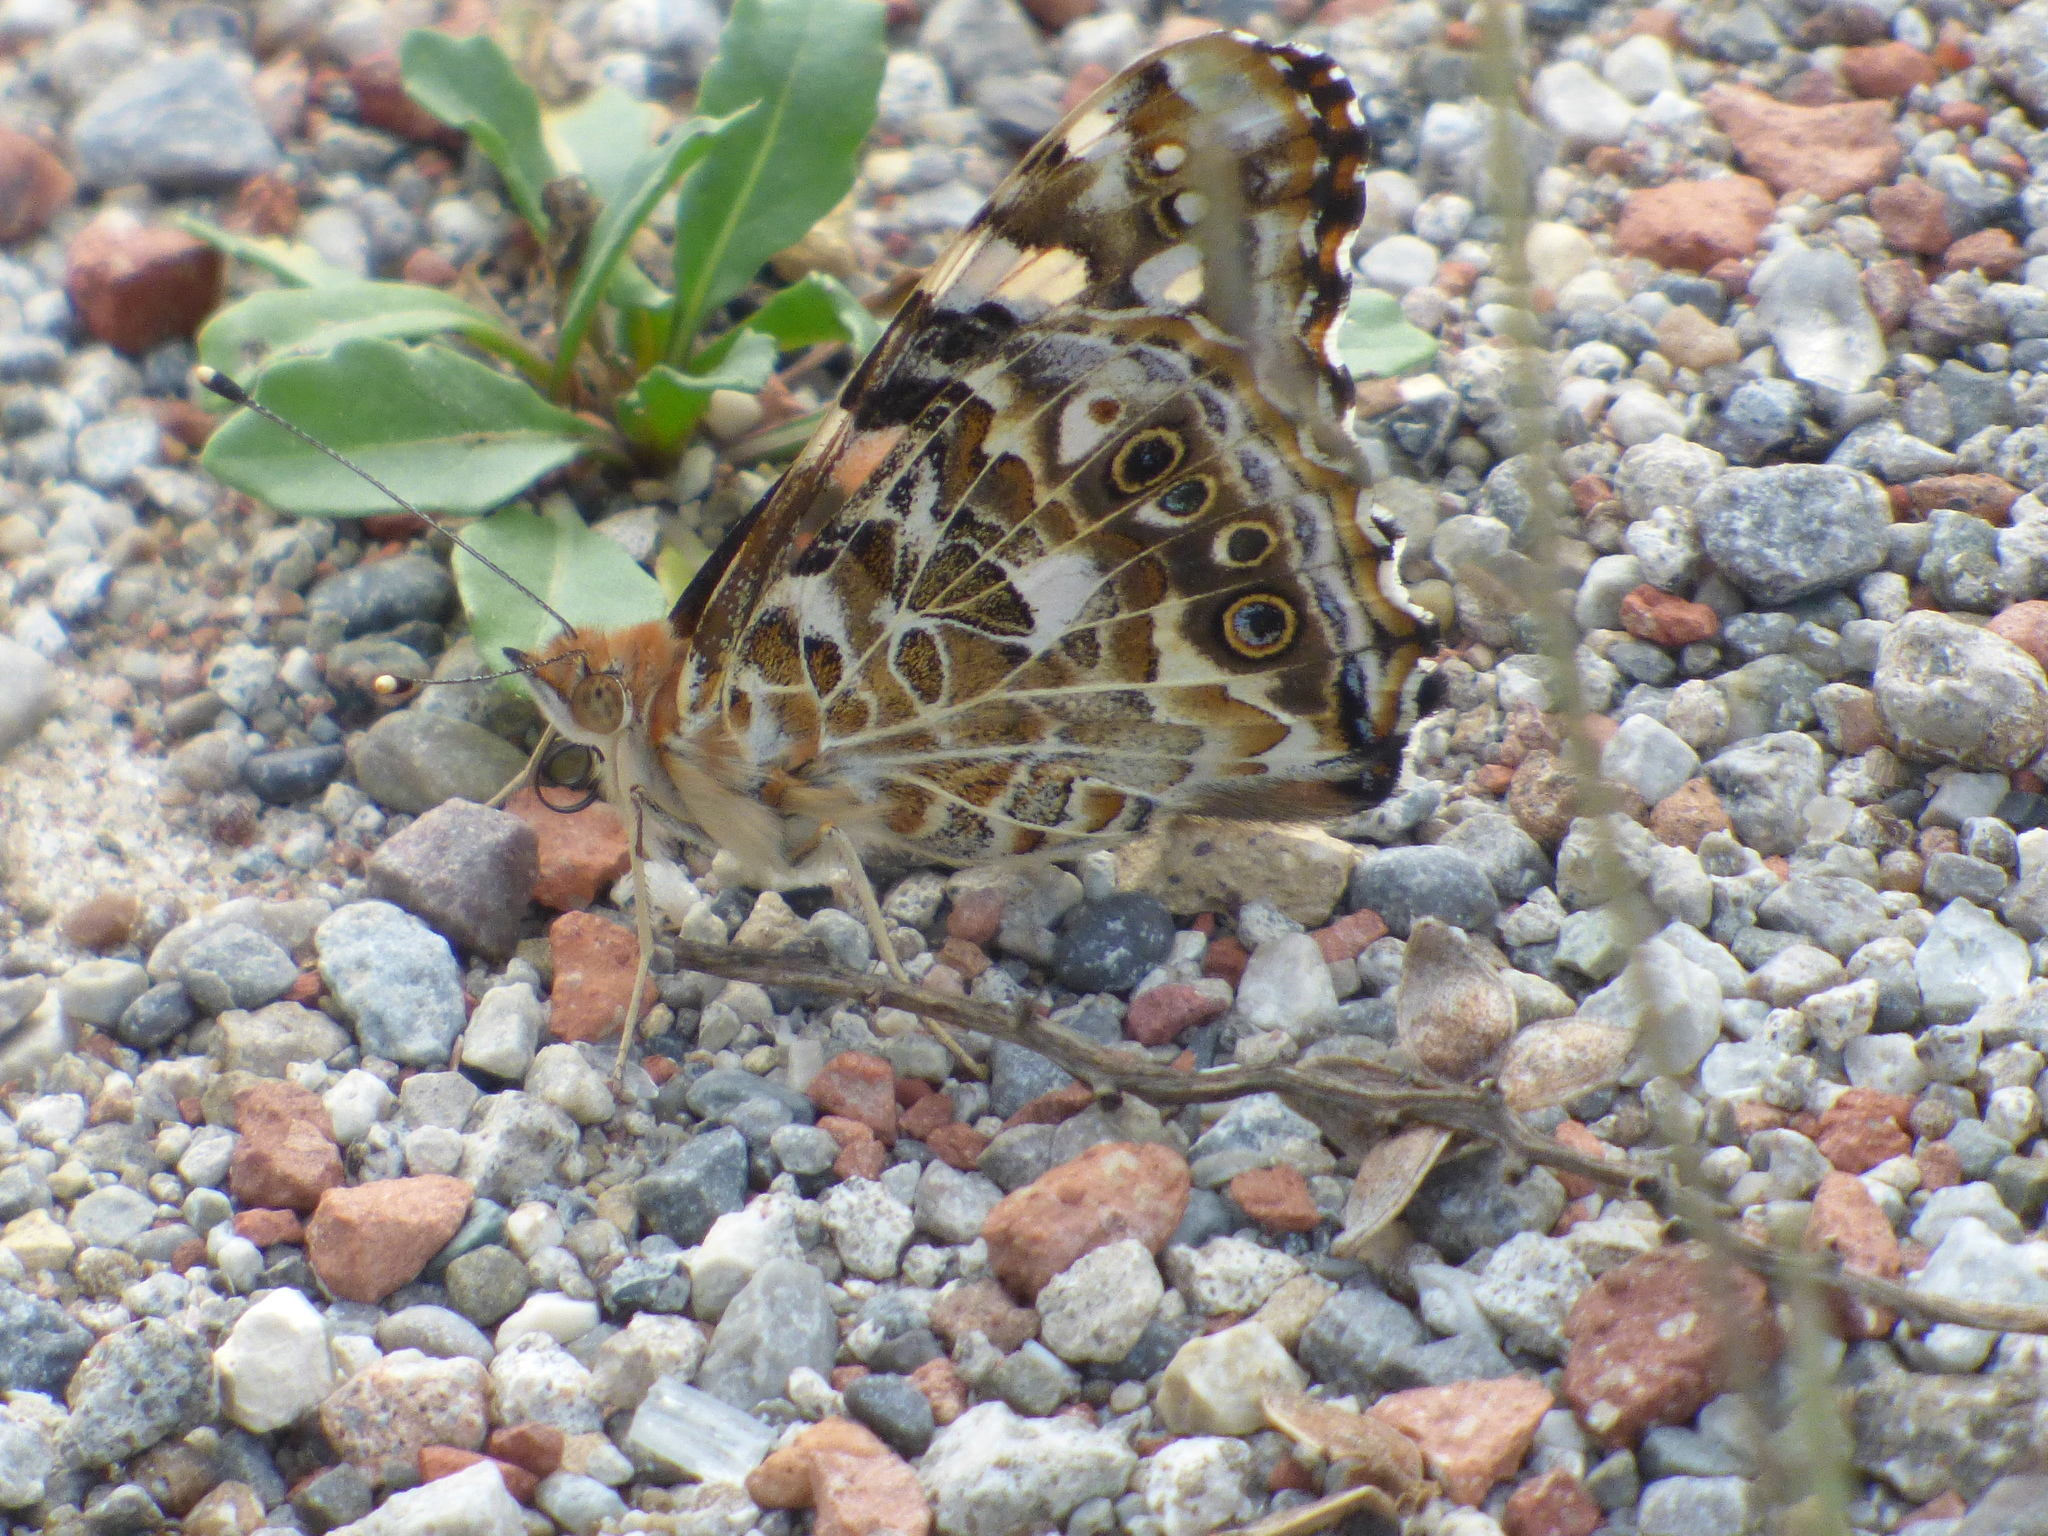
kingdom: Animalia
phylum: Arthropoda
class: Insecta
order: Lepidoptera
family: Nymphalidae
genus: Vanessa
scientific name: Vanessa cardui
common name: Painted lady
